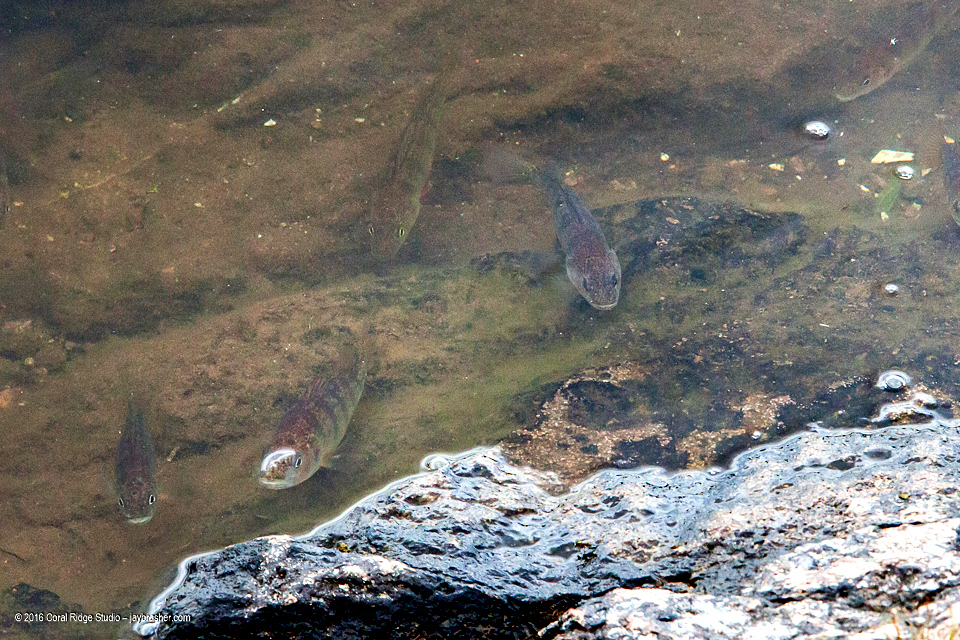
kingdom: Animalia
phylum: Chordata
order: Perciformes
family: Percidae
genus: Perca
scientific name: Perca flavescens
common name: Yellow perch
